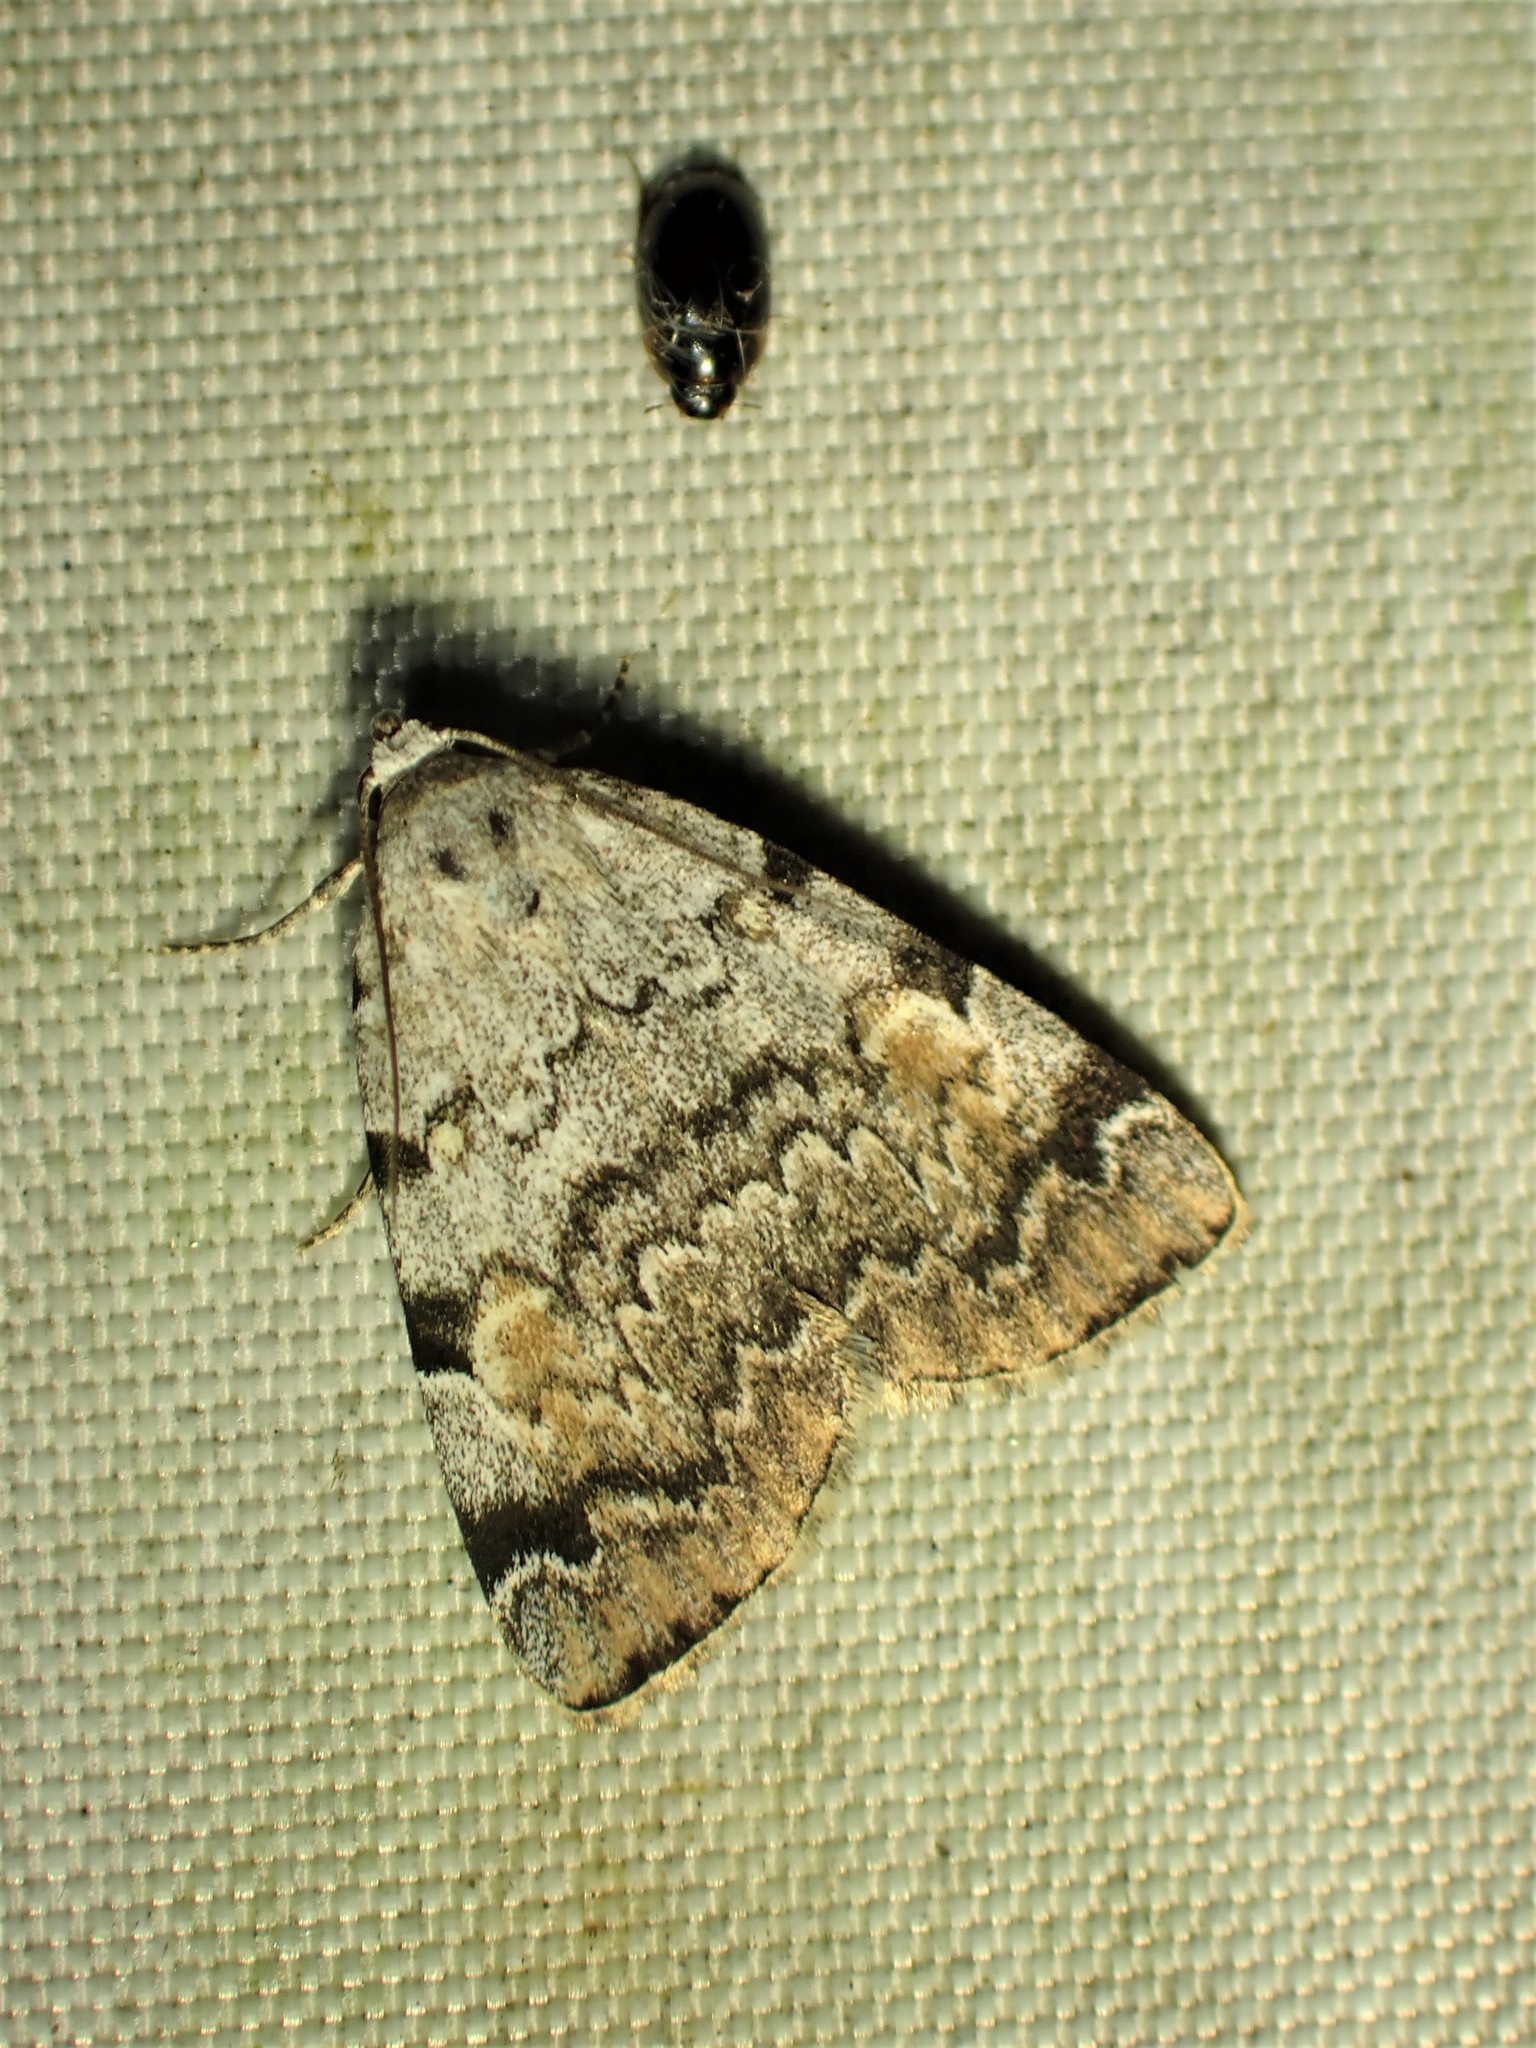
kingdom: Animalia
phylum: Arthropoda
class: Insecta
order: Lepidoptera
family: Erebidae
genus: Idia
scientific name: Idia americalis
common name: American idia moth
